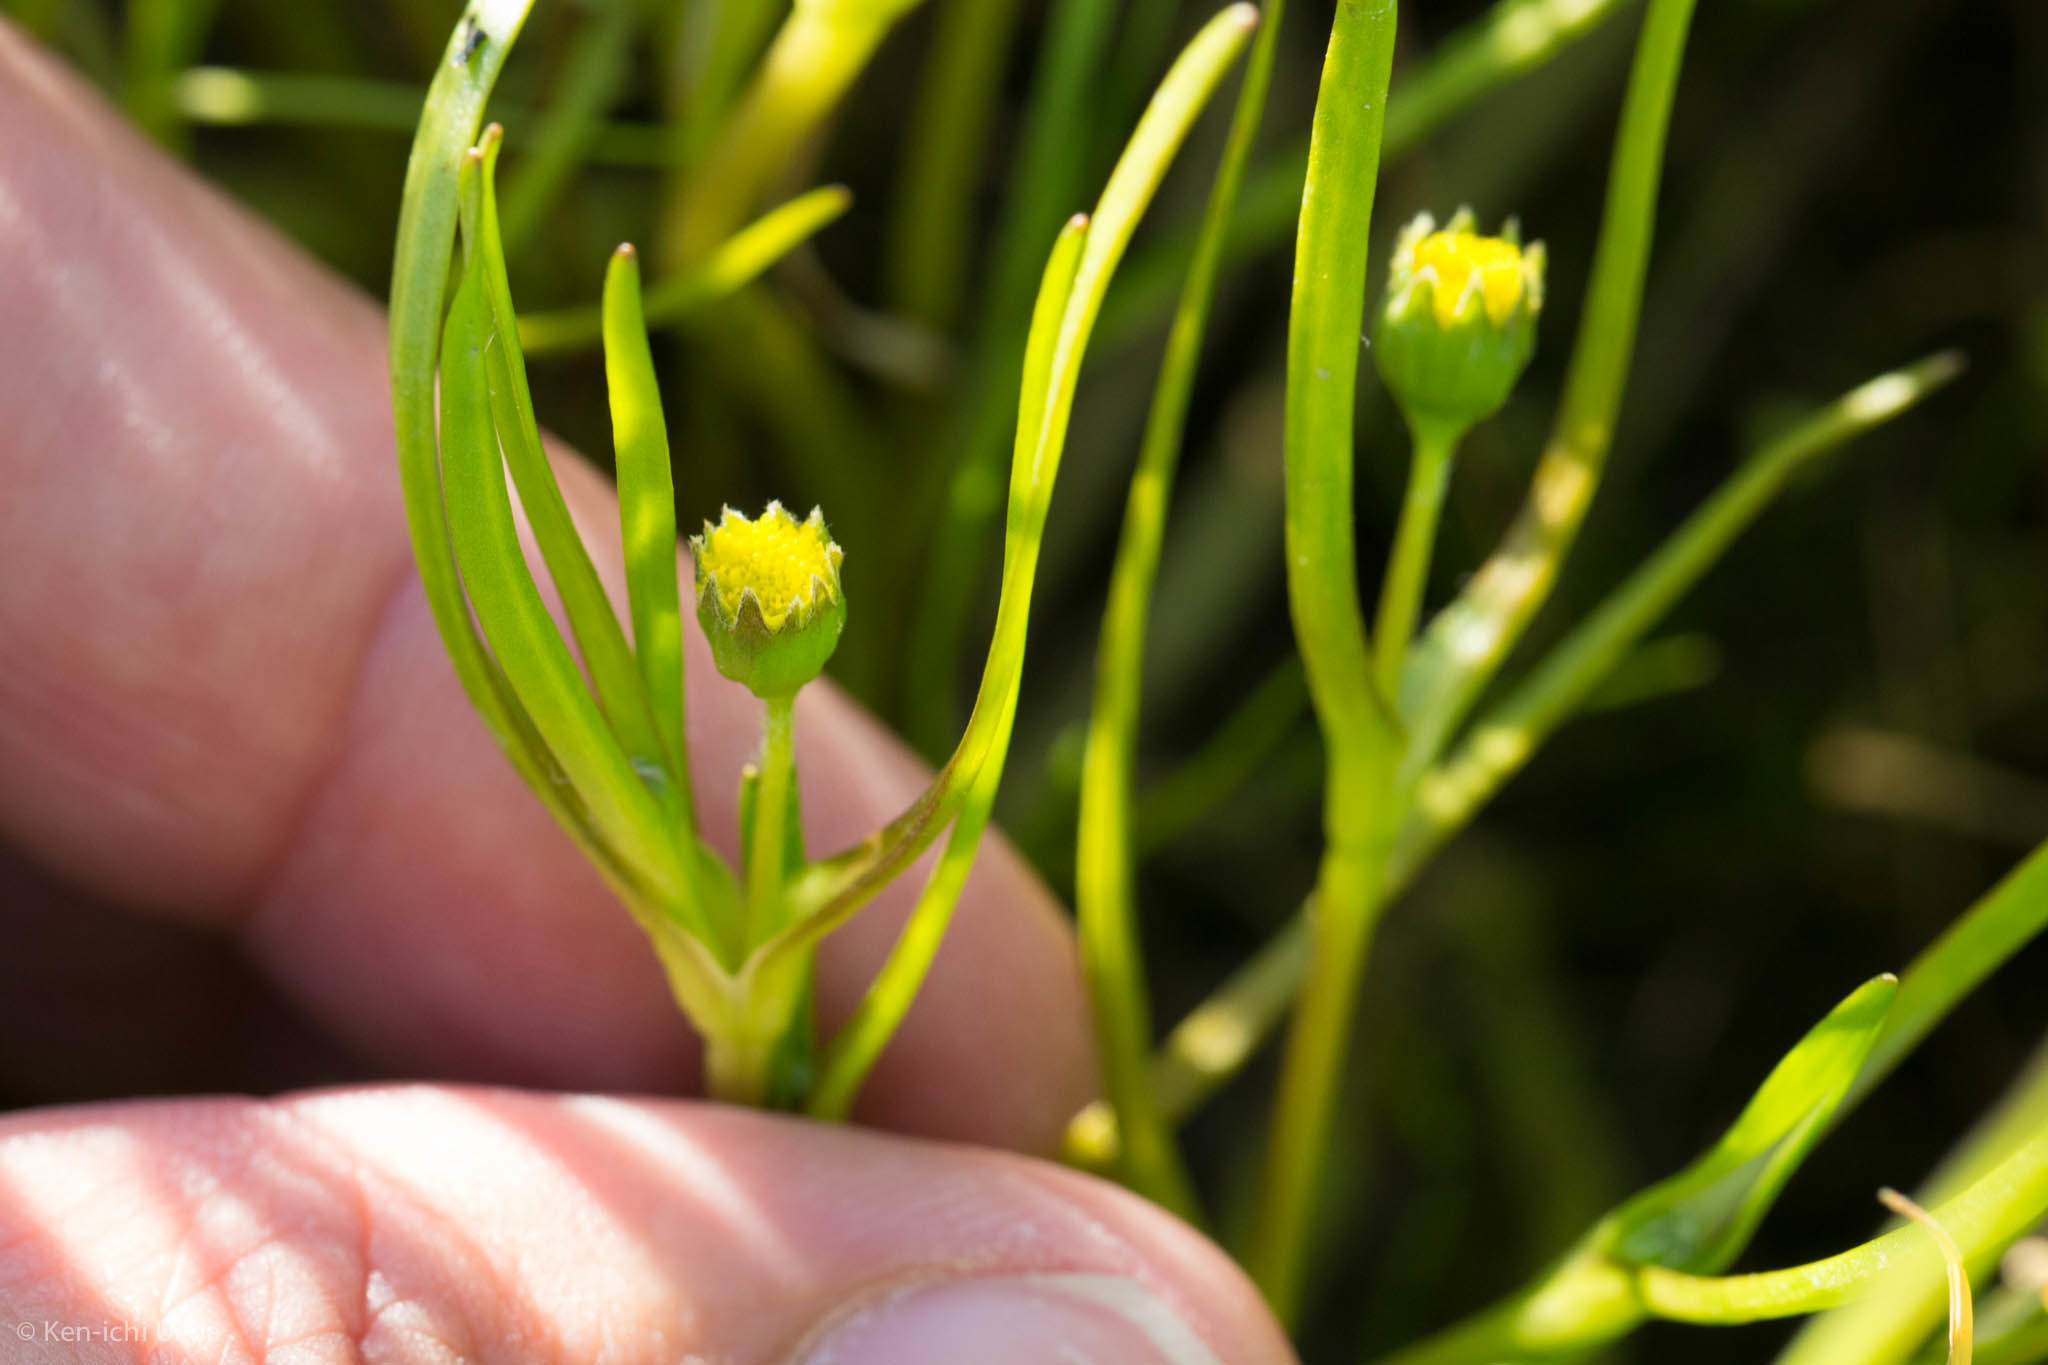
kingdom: Plantae
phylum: Tracheophyta
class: Magnoliopsida
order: Asterales
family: Asteraceae
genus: Lasthenia
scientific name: Lasthenia glaberrima
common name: Smooth goldfields
